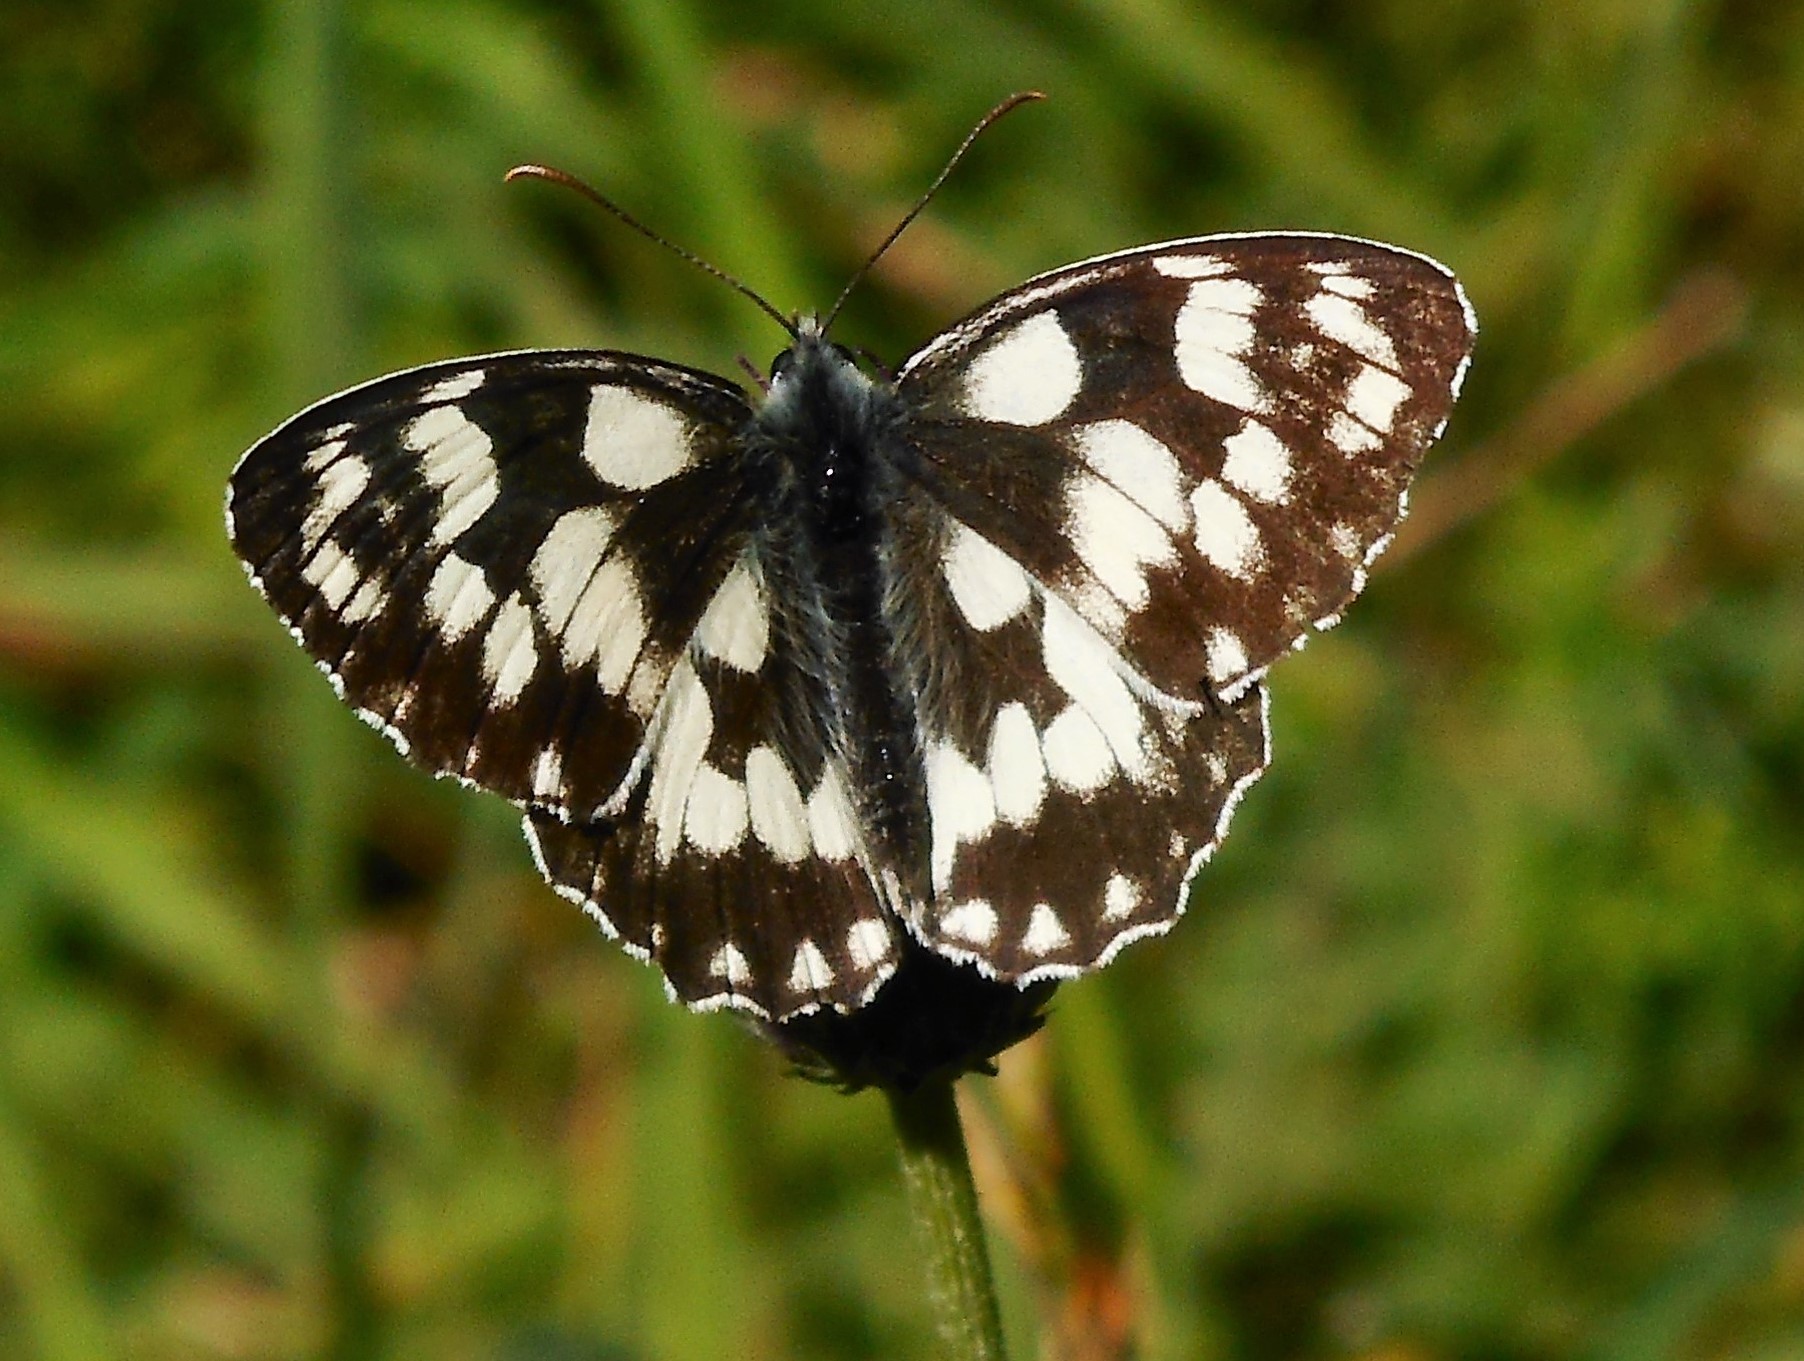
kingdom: Animalia
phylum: Arthropoda
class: Insecta
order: Lepidoptera
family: Nymphalidae
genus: Melanargia
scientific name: Melanargia galathea
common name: Marbled white
